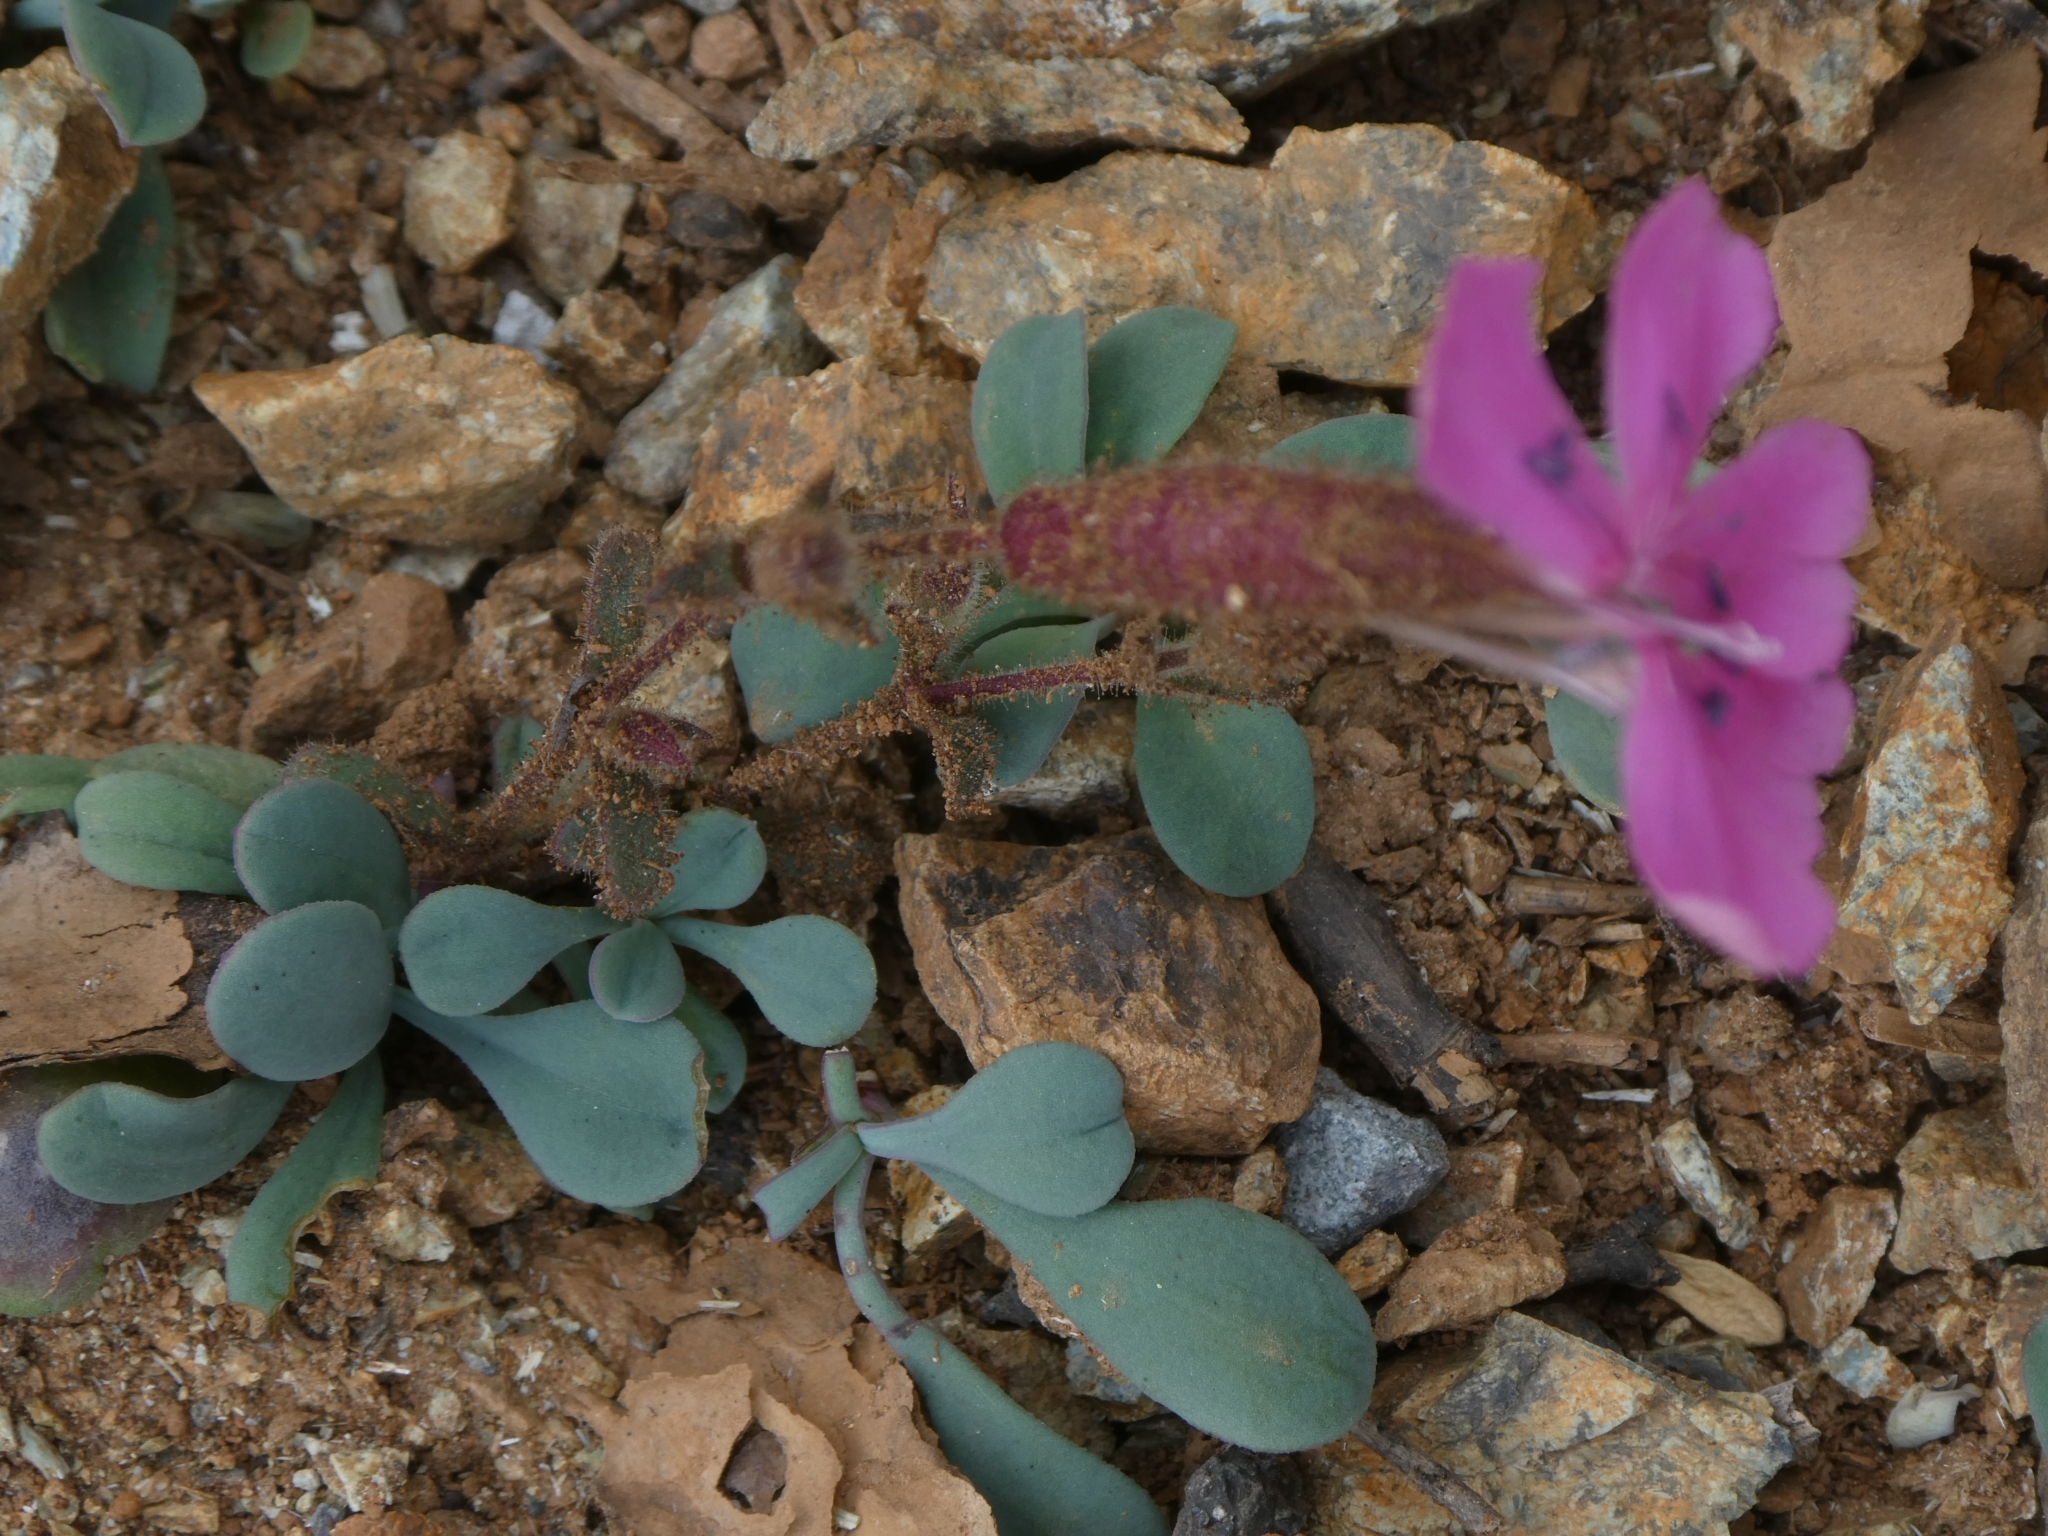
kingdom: Plantae
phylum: Tracheophyta
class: Magnoliopsida
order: Caryophyllales
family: Caryophyllaceae
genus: Saponaria
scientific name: Saponaria cypria
